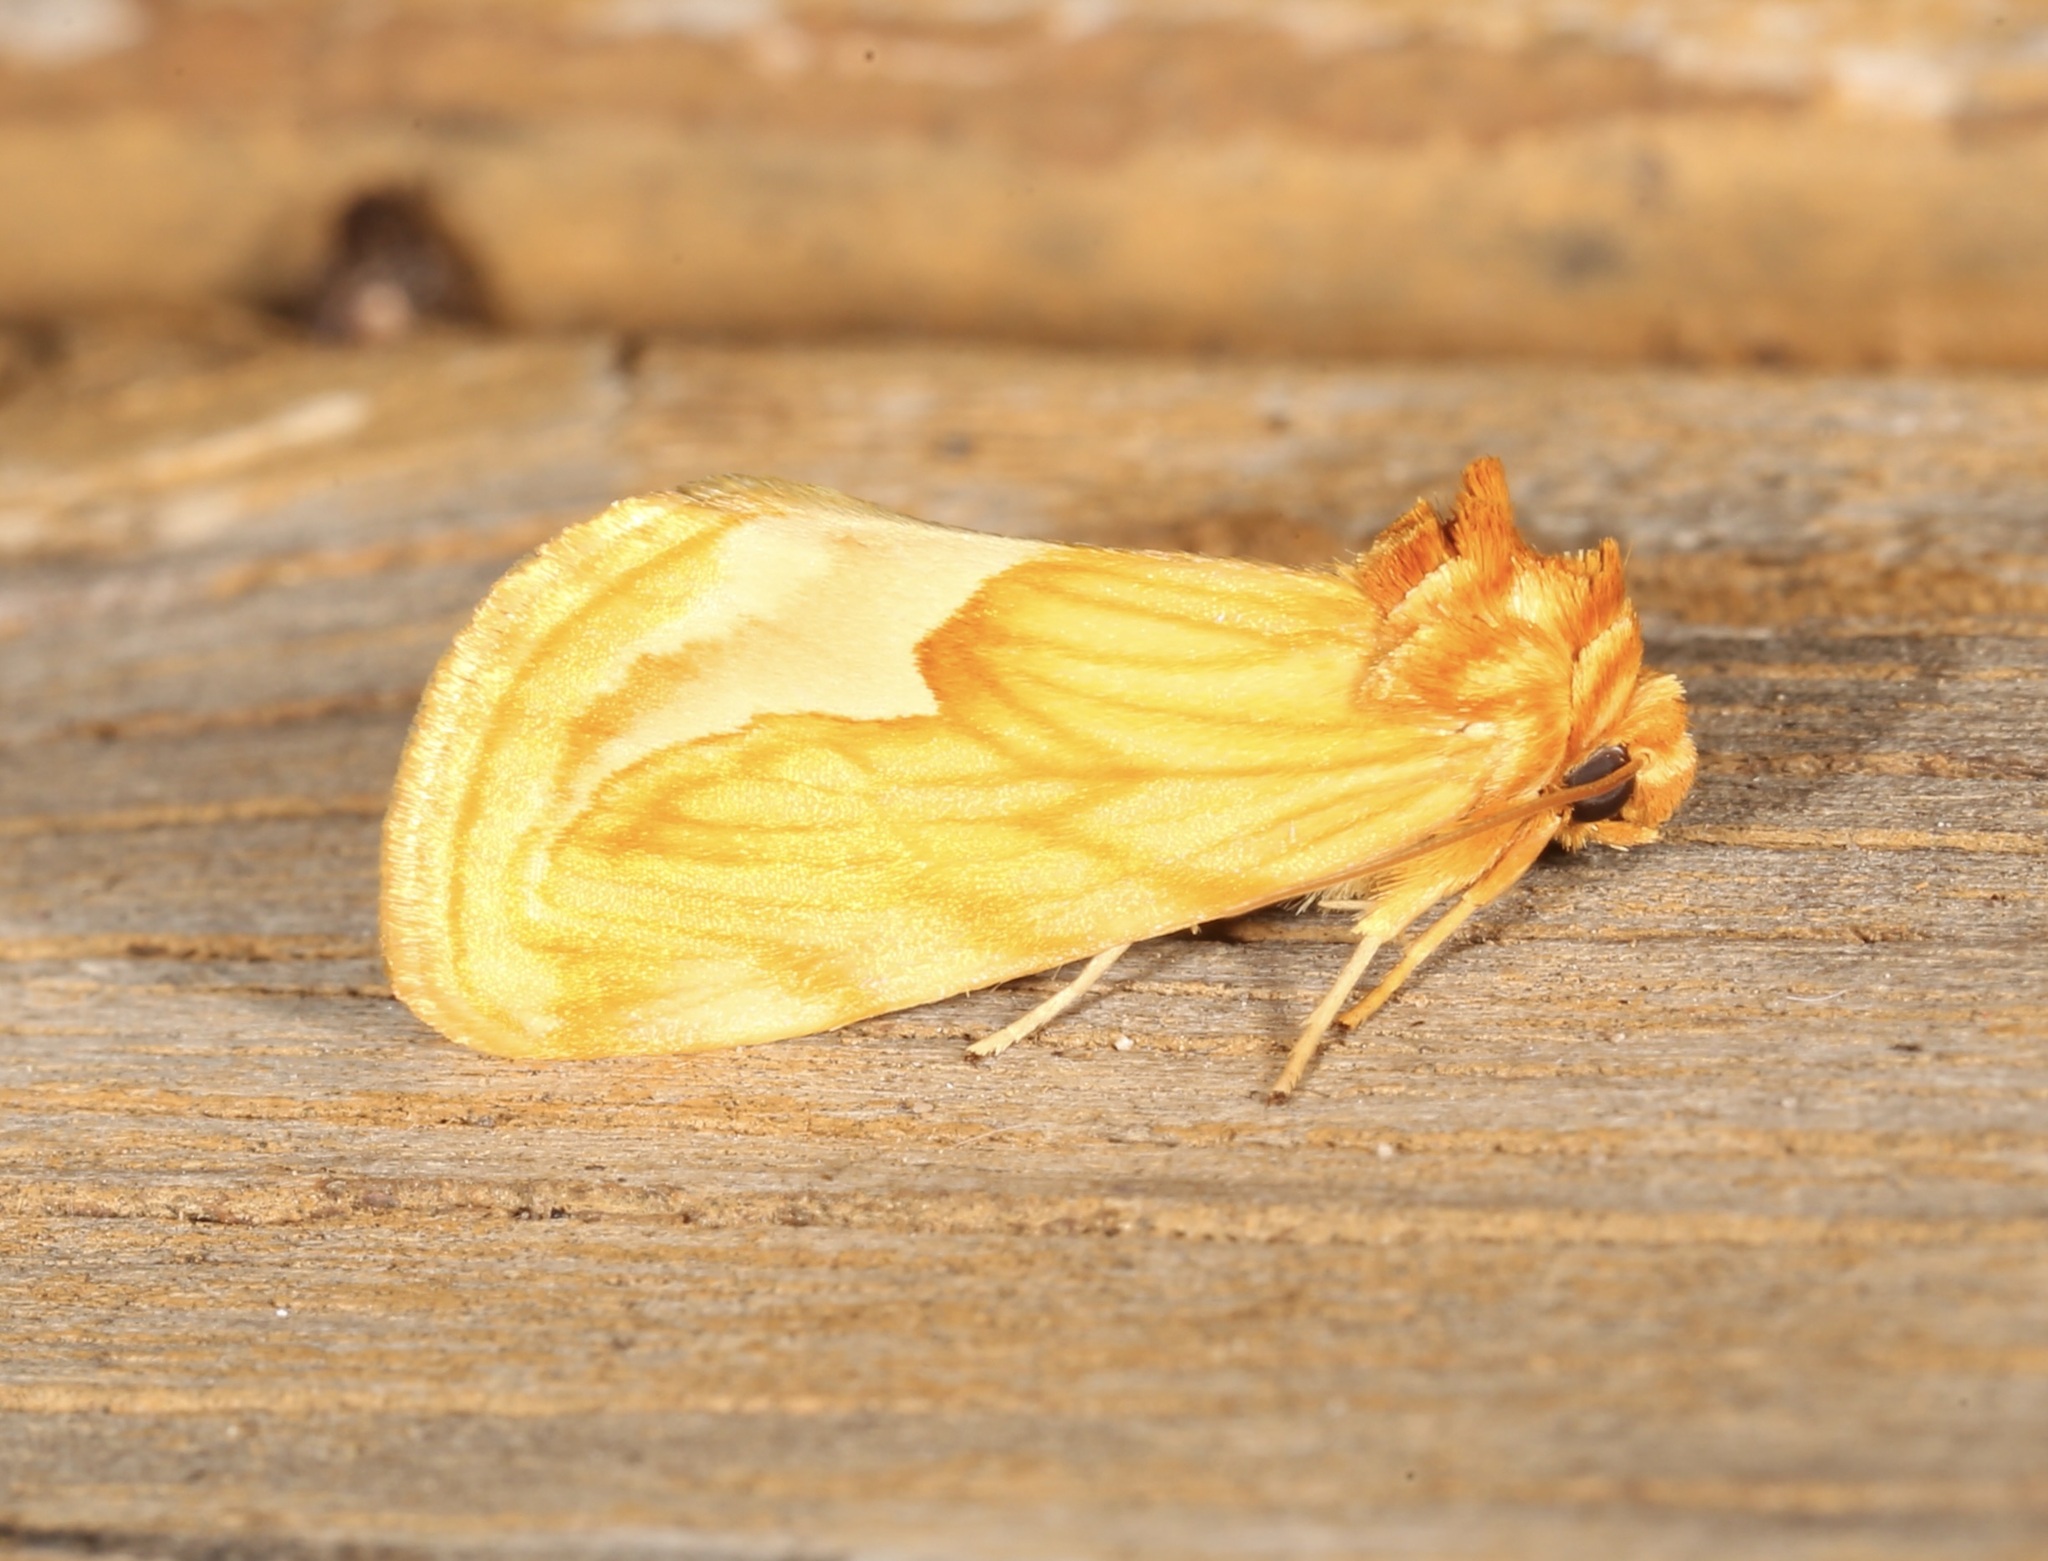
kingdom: Animalia
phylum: Arthropoda
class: Insecta
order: Lepidoptera
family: Noctuidae
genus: Cirrhophanus
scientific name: Cirrhophanus dyari
